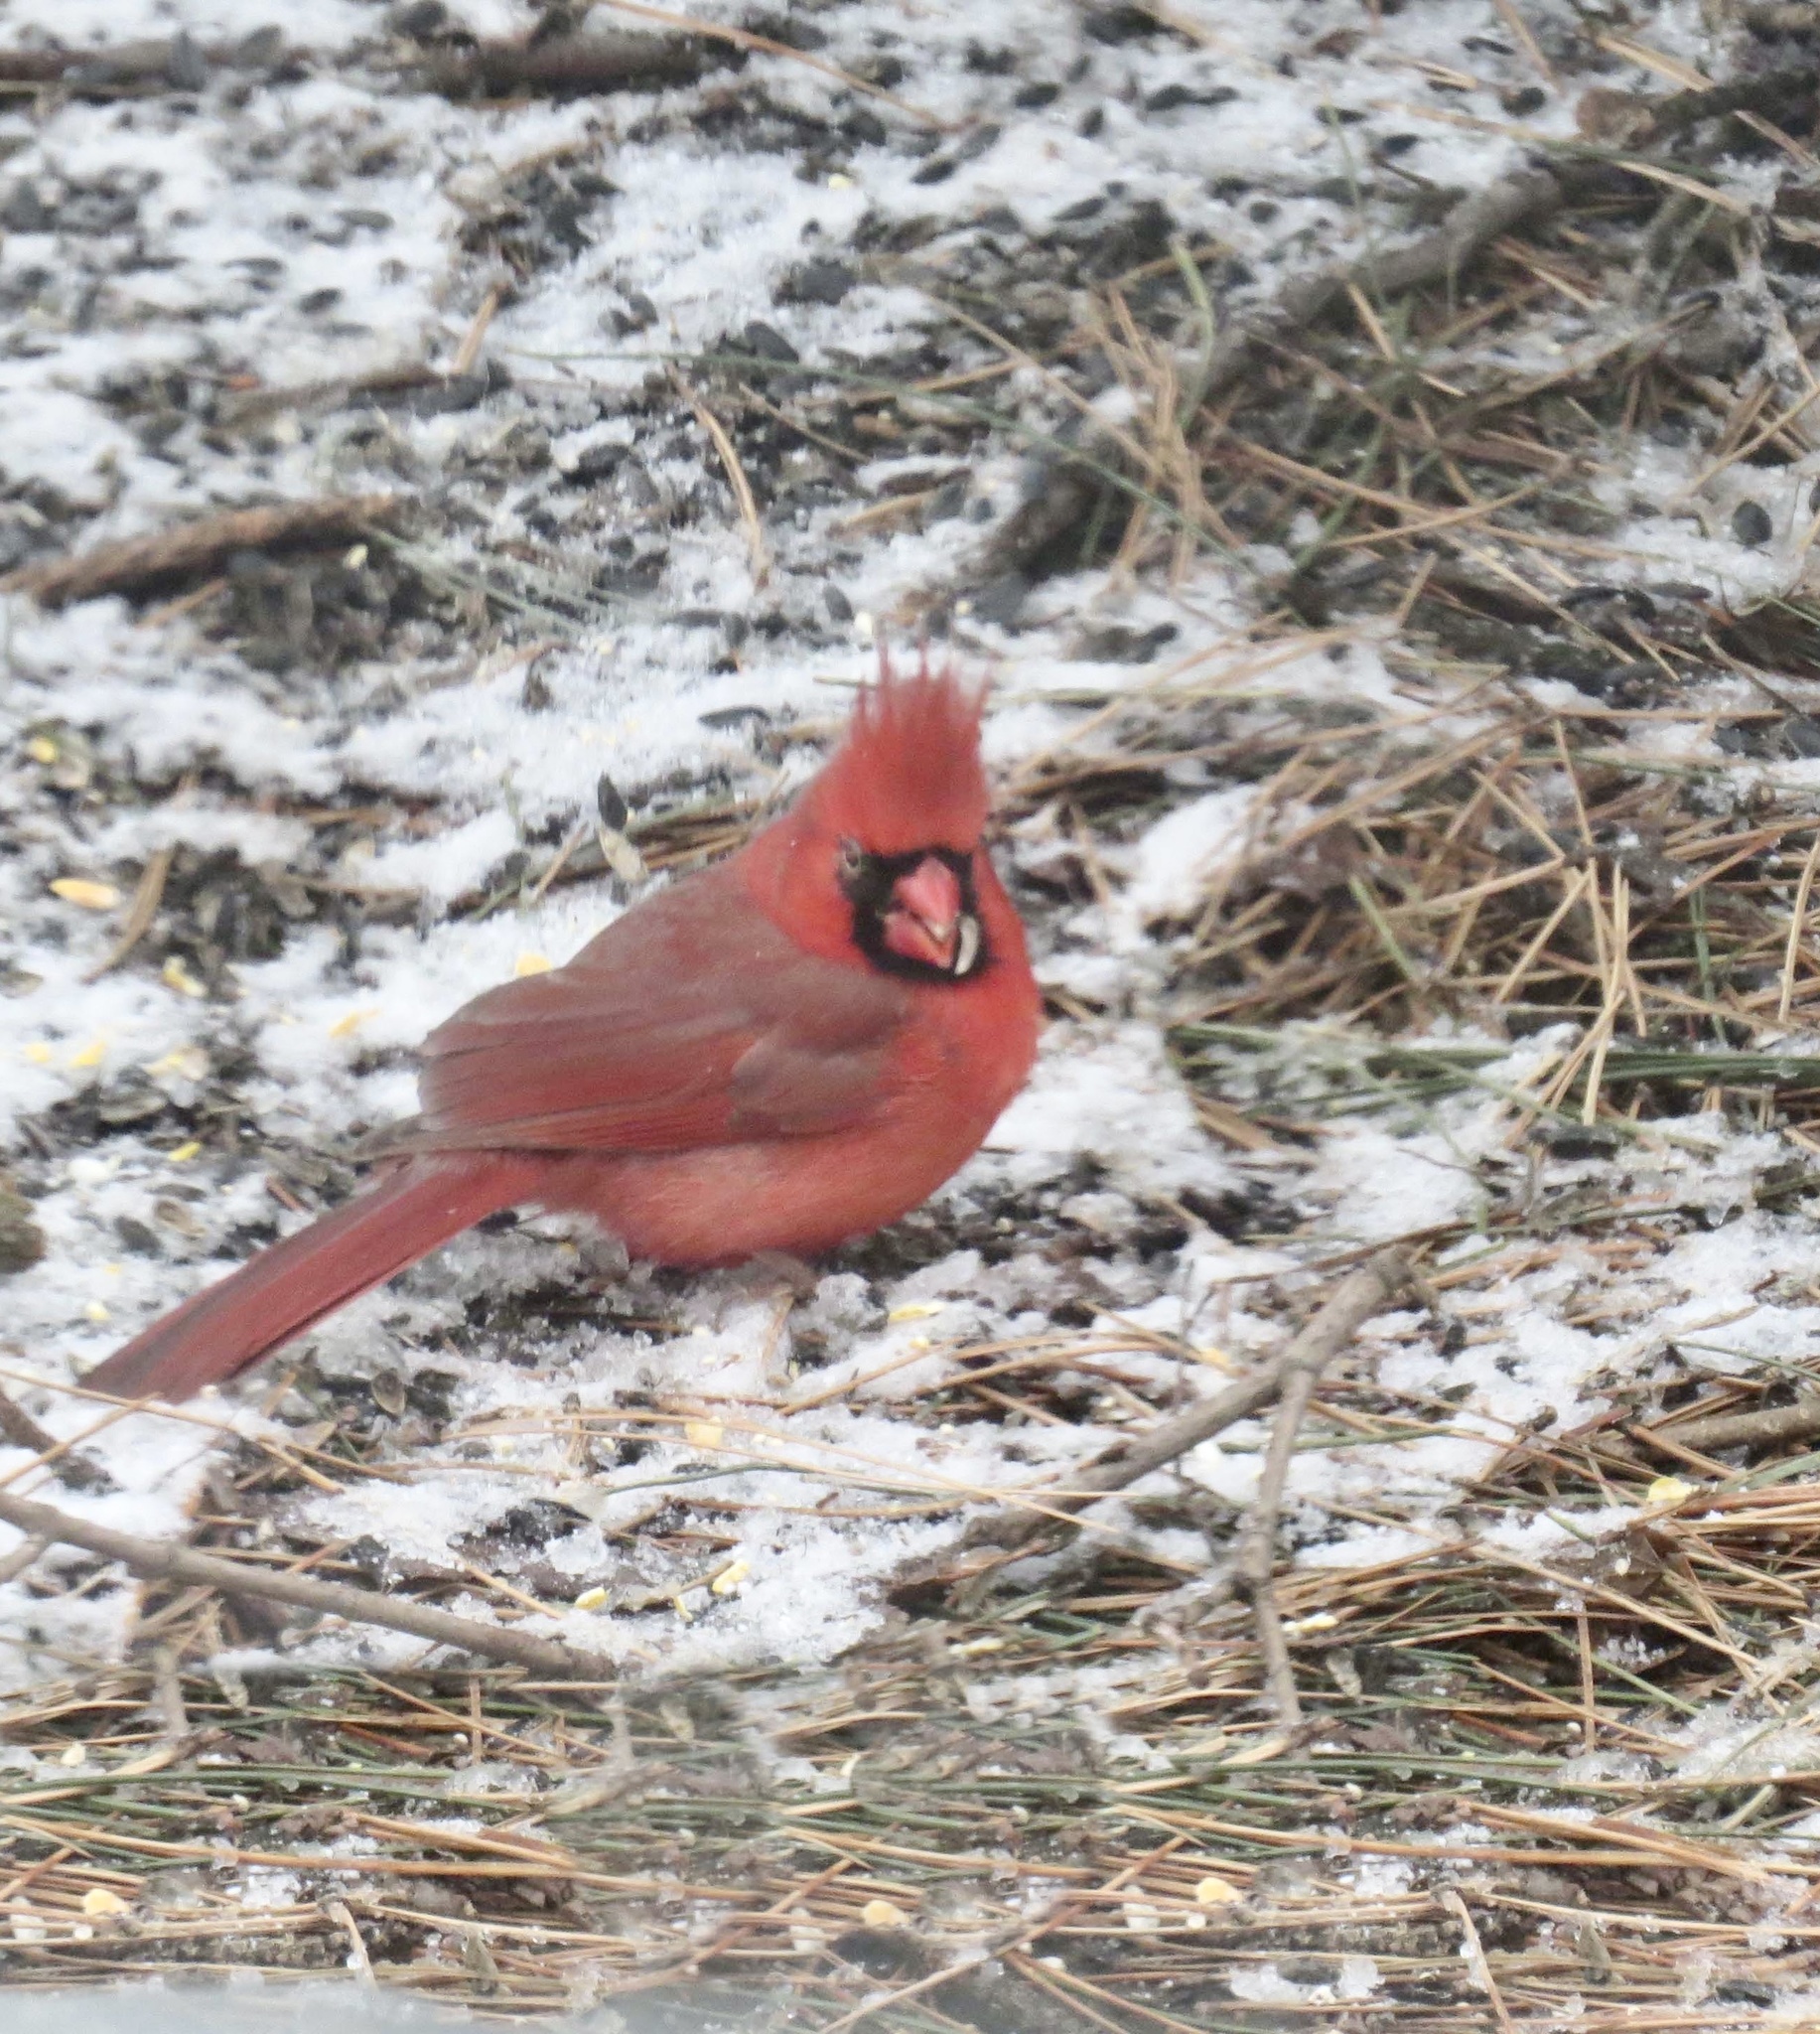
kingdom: Animalia
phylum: Chordata
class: Aves
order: Passeriformes
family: Cardinalidae
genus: Cardinalis
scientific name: Cardinalis cardinalis
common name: Northern cardinal
